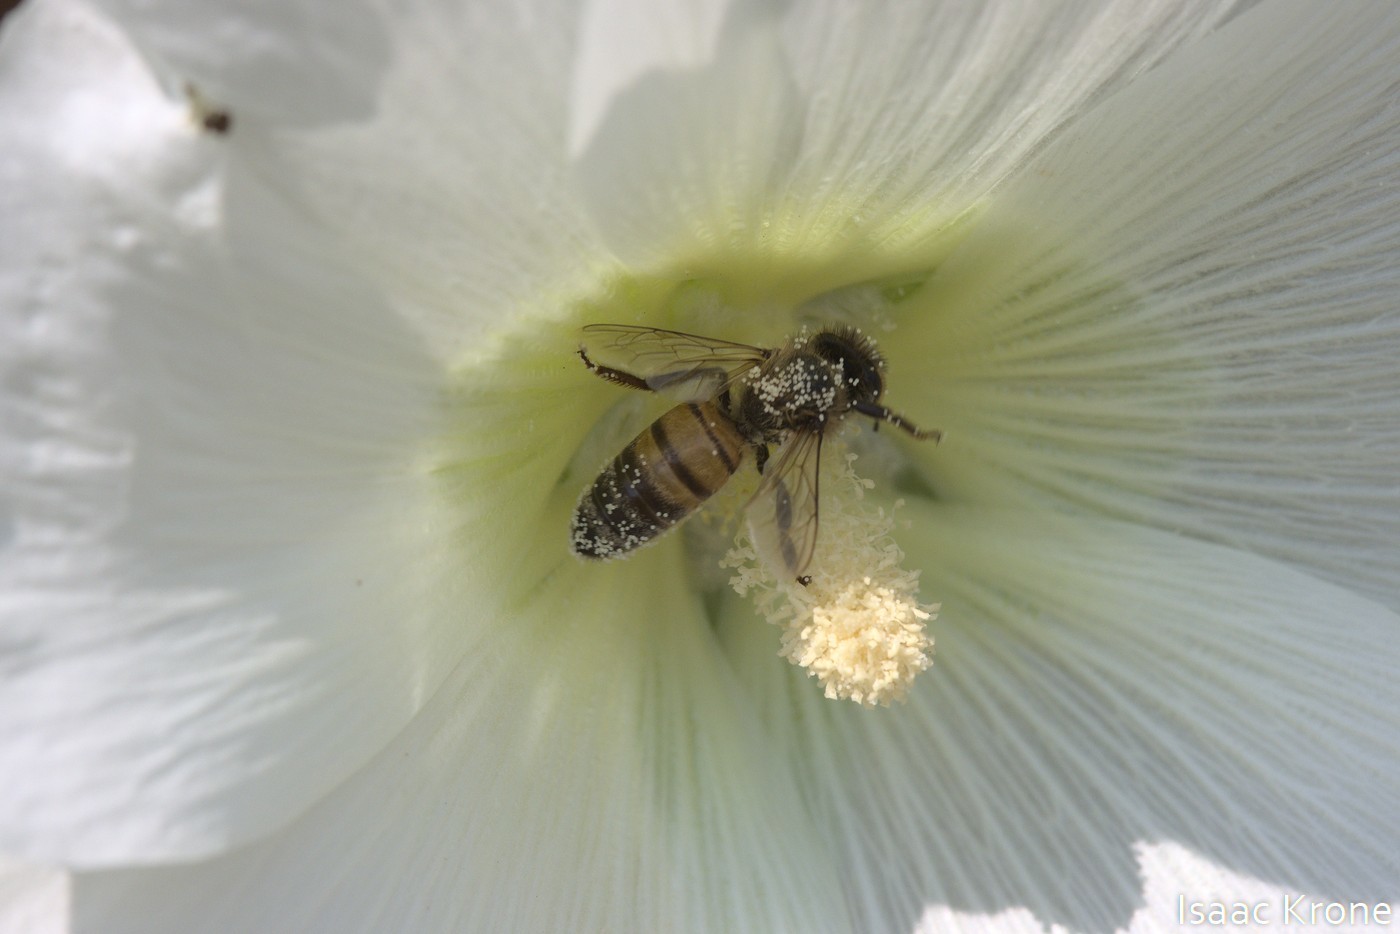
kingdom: Animalia
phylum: Arthropoda
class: Insecta
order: Hymenoptera
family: Apidae
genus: Apis
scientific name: Apis mellifera
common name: Honey bee
